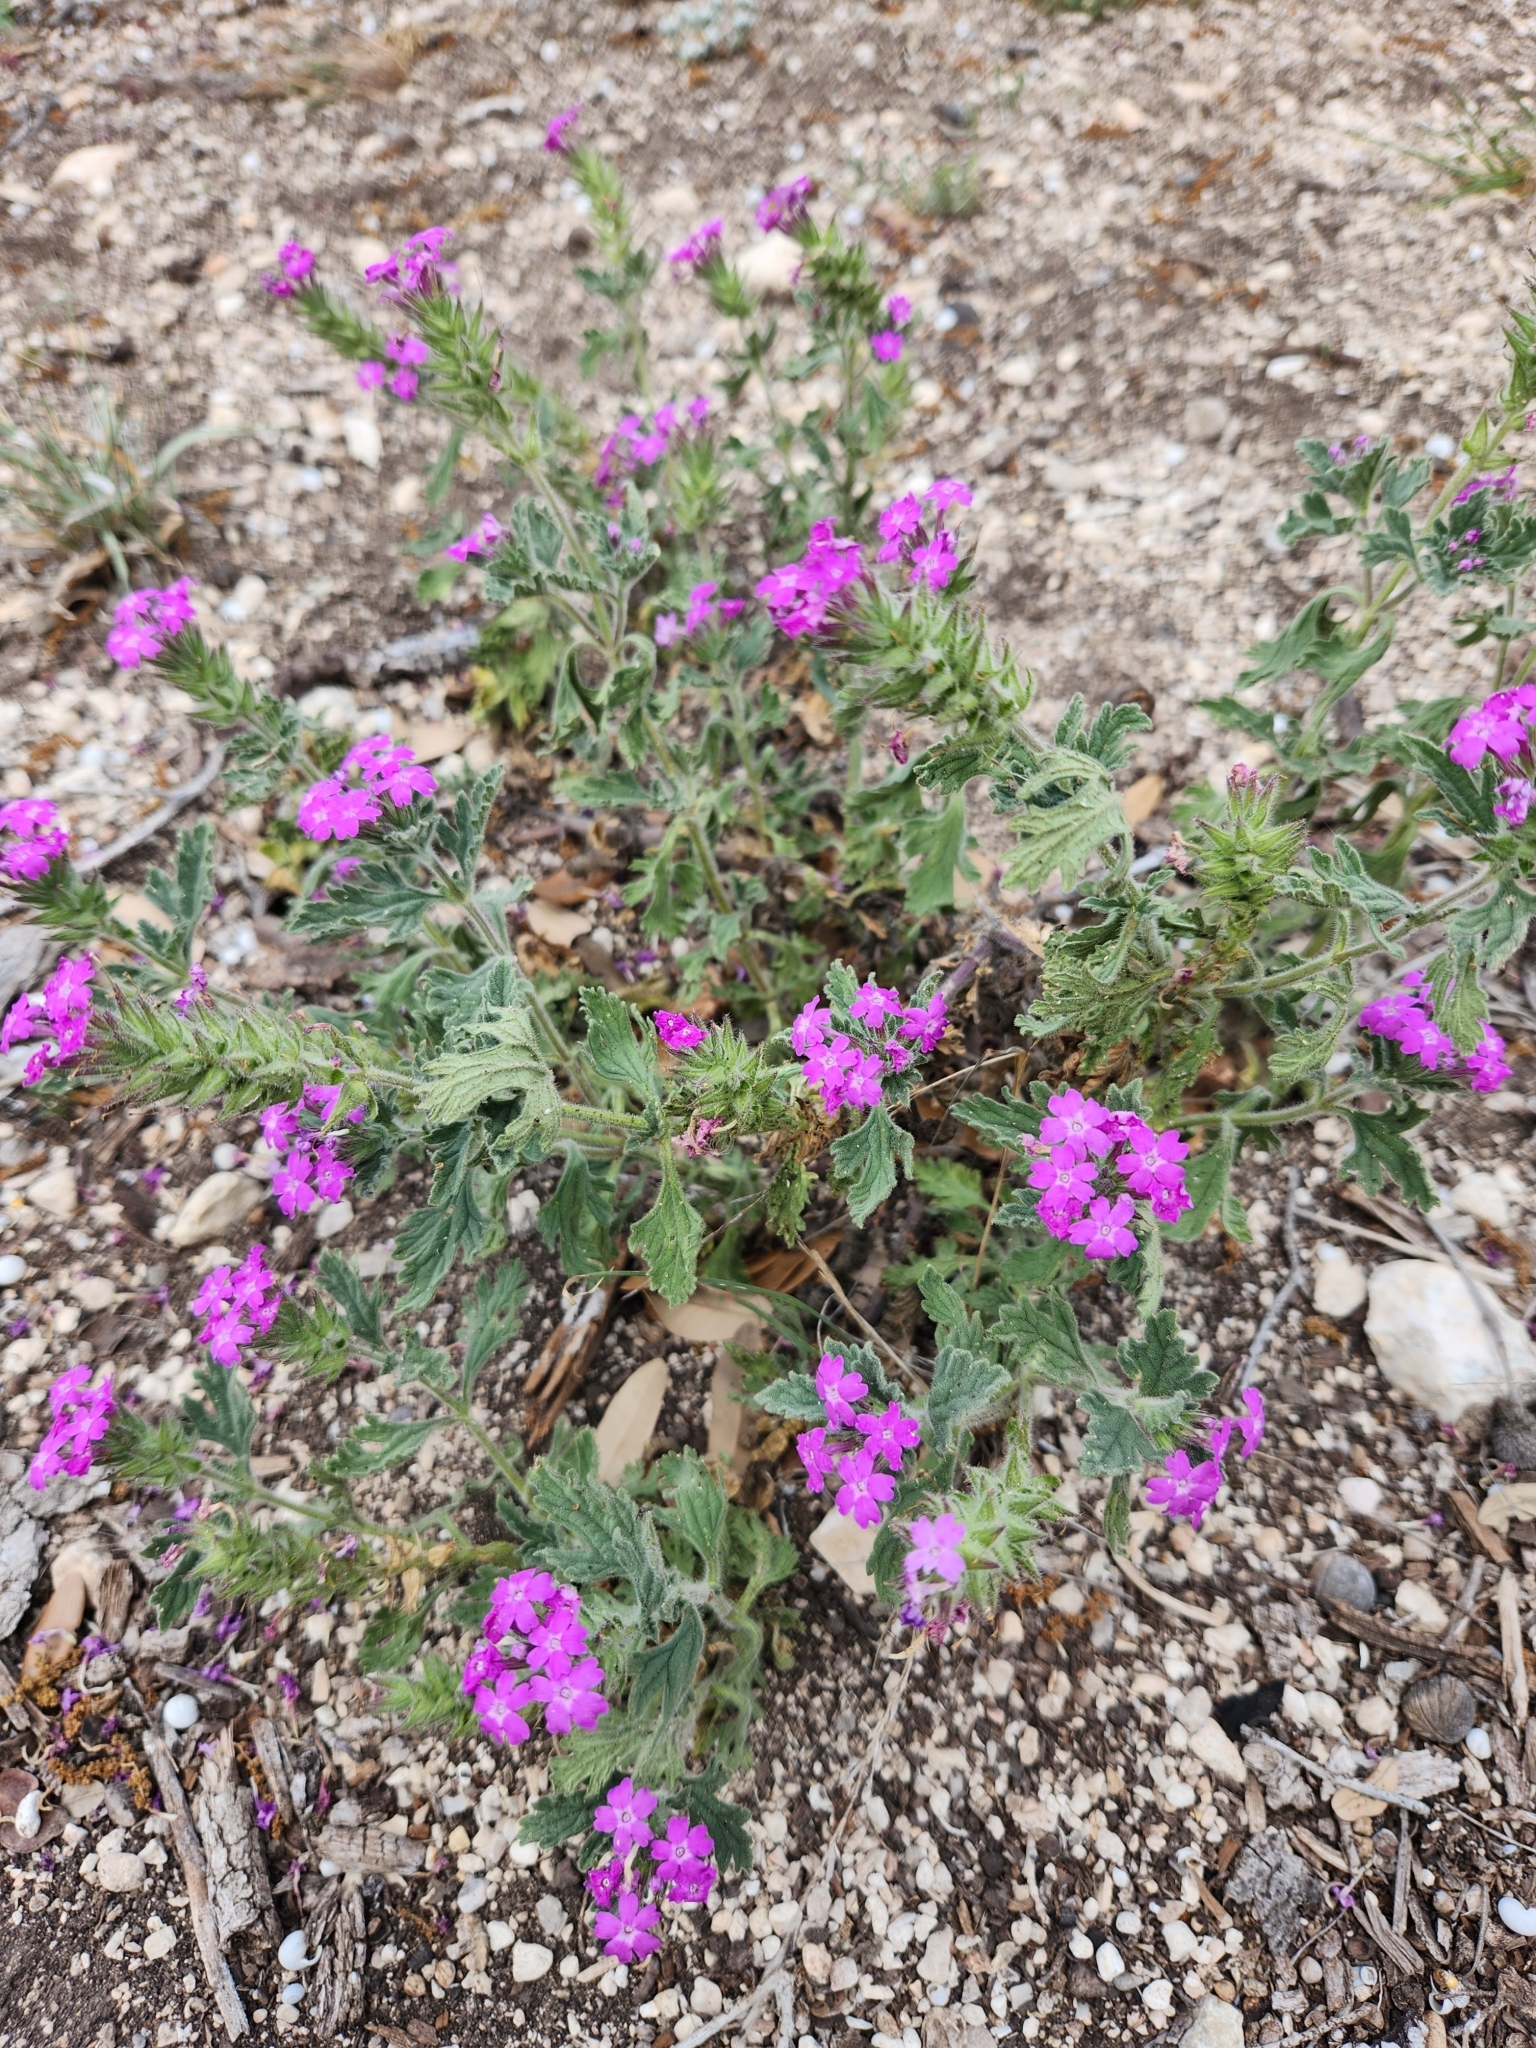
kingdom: Plantae
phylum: Tracheophyta
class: Magnoliopsida
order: Lamiales
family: Verbenaceae
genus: Verbena
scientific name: Verbena tumidula
